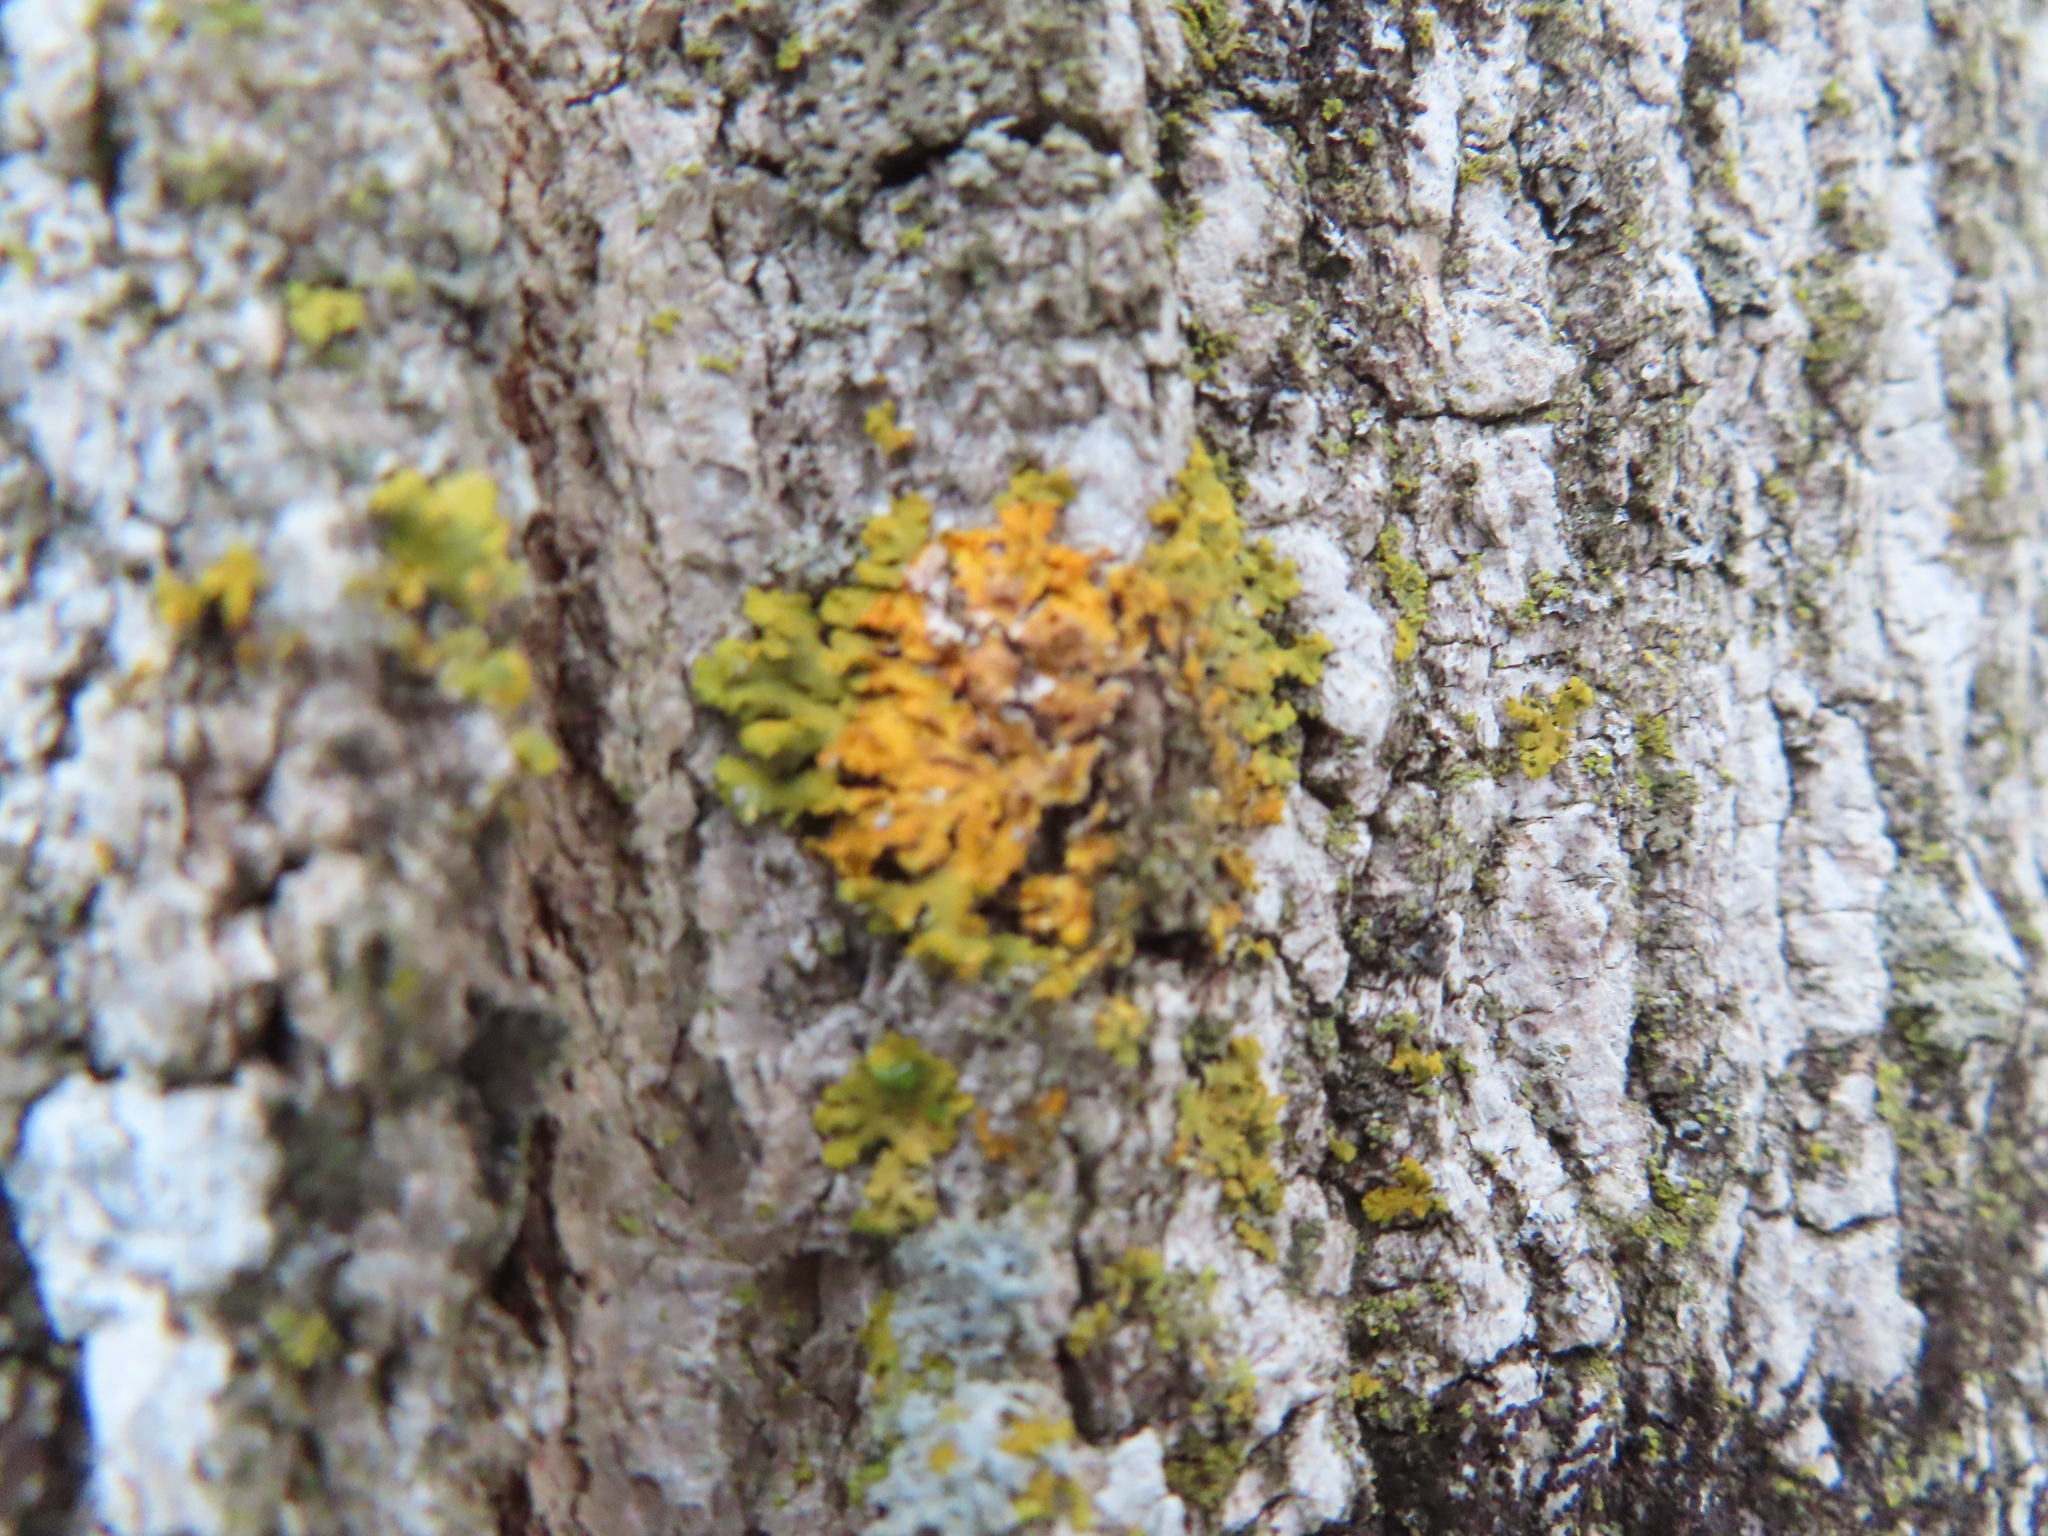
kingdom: Fungi
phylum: Ascomycota
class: Lecanoromycetes
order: Teloschistales
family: Teloschistaceae
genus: Oxneria
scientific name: Oxneria fallax
